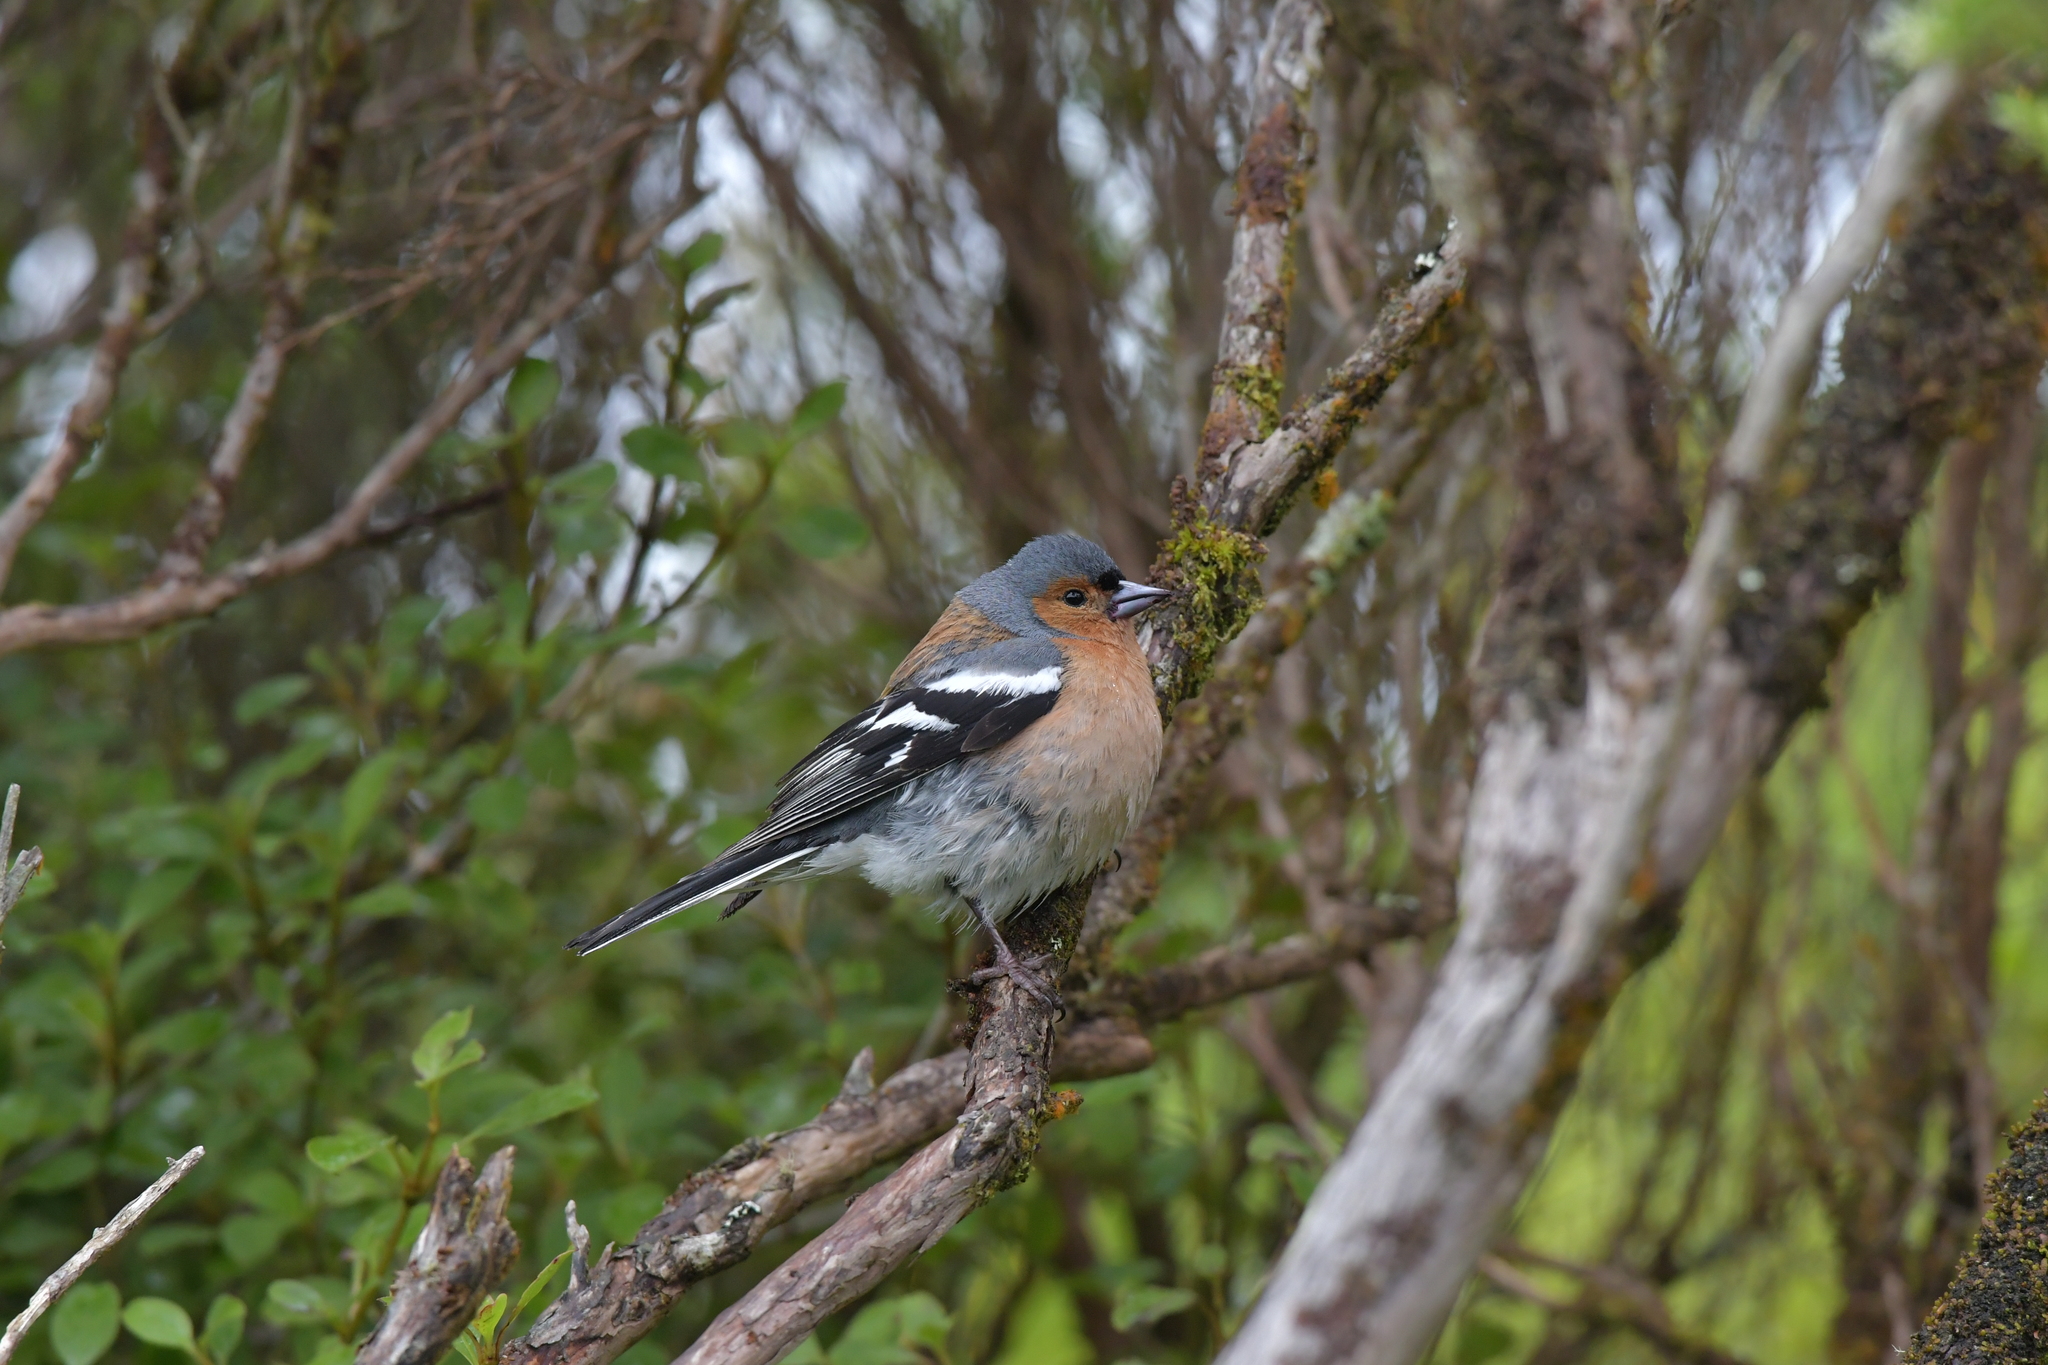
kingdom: Animalia
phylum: Chordata
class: Aves
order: Passeriformes
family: Fringillidae
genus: Fringilla
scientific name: Fringilla coelebs
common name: Common chaffinch
